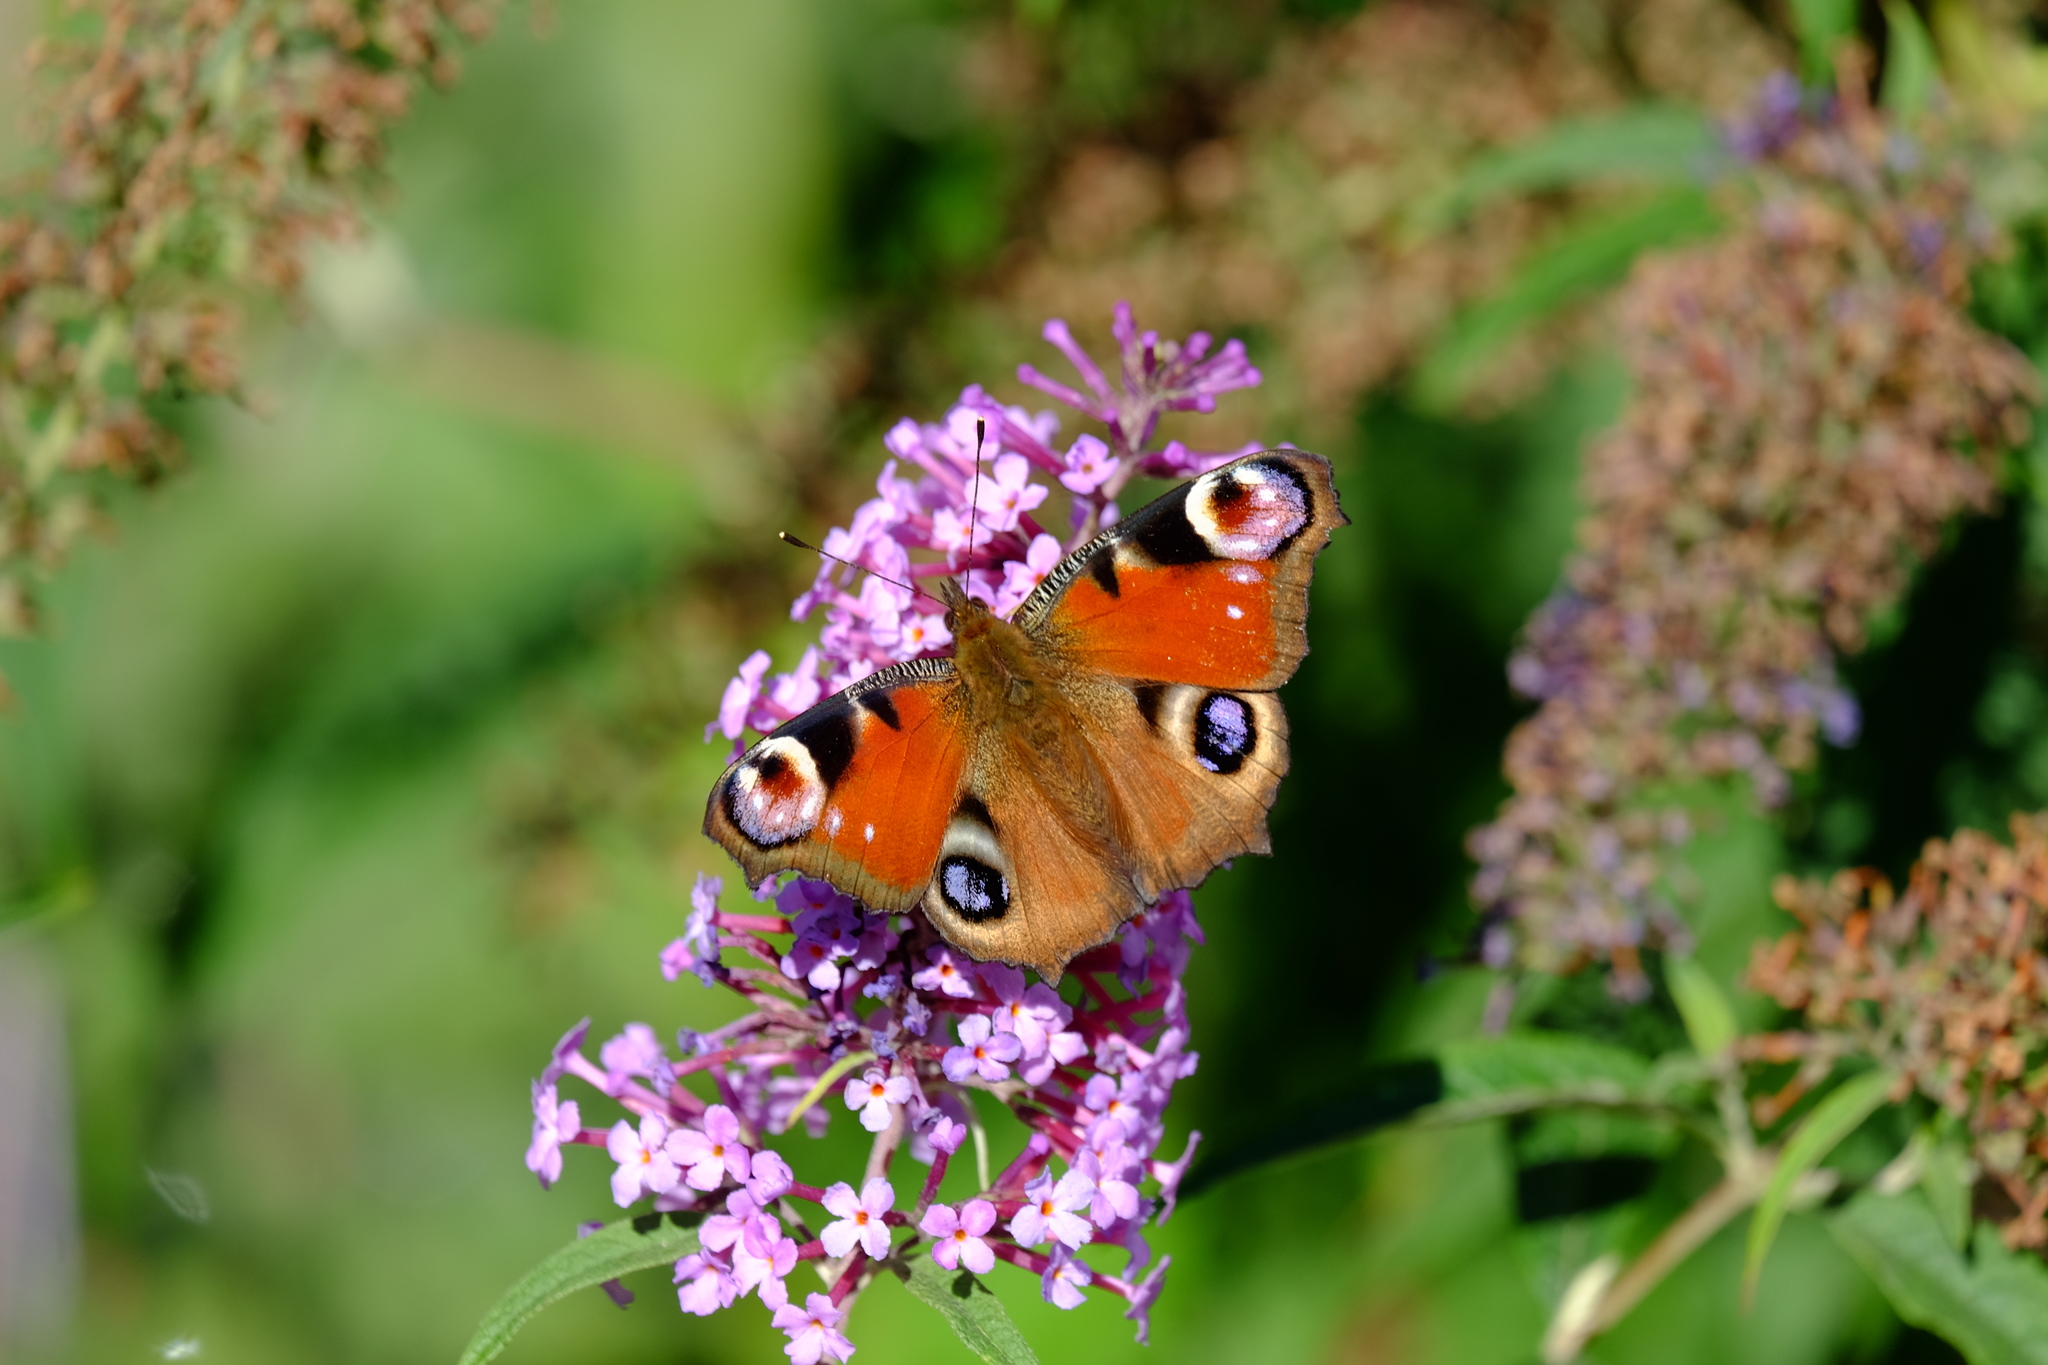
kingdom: Animalia
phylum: Arthropoda
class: Insecta
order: Lepidoptera
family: Nymphalidae
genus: Aglais
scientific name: Aglais io
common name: Peacock
